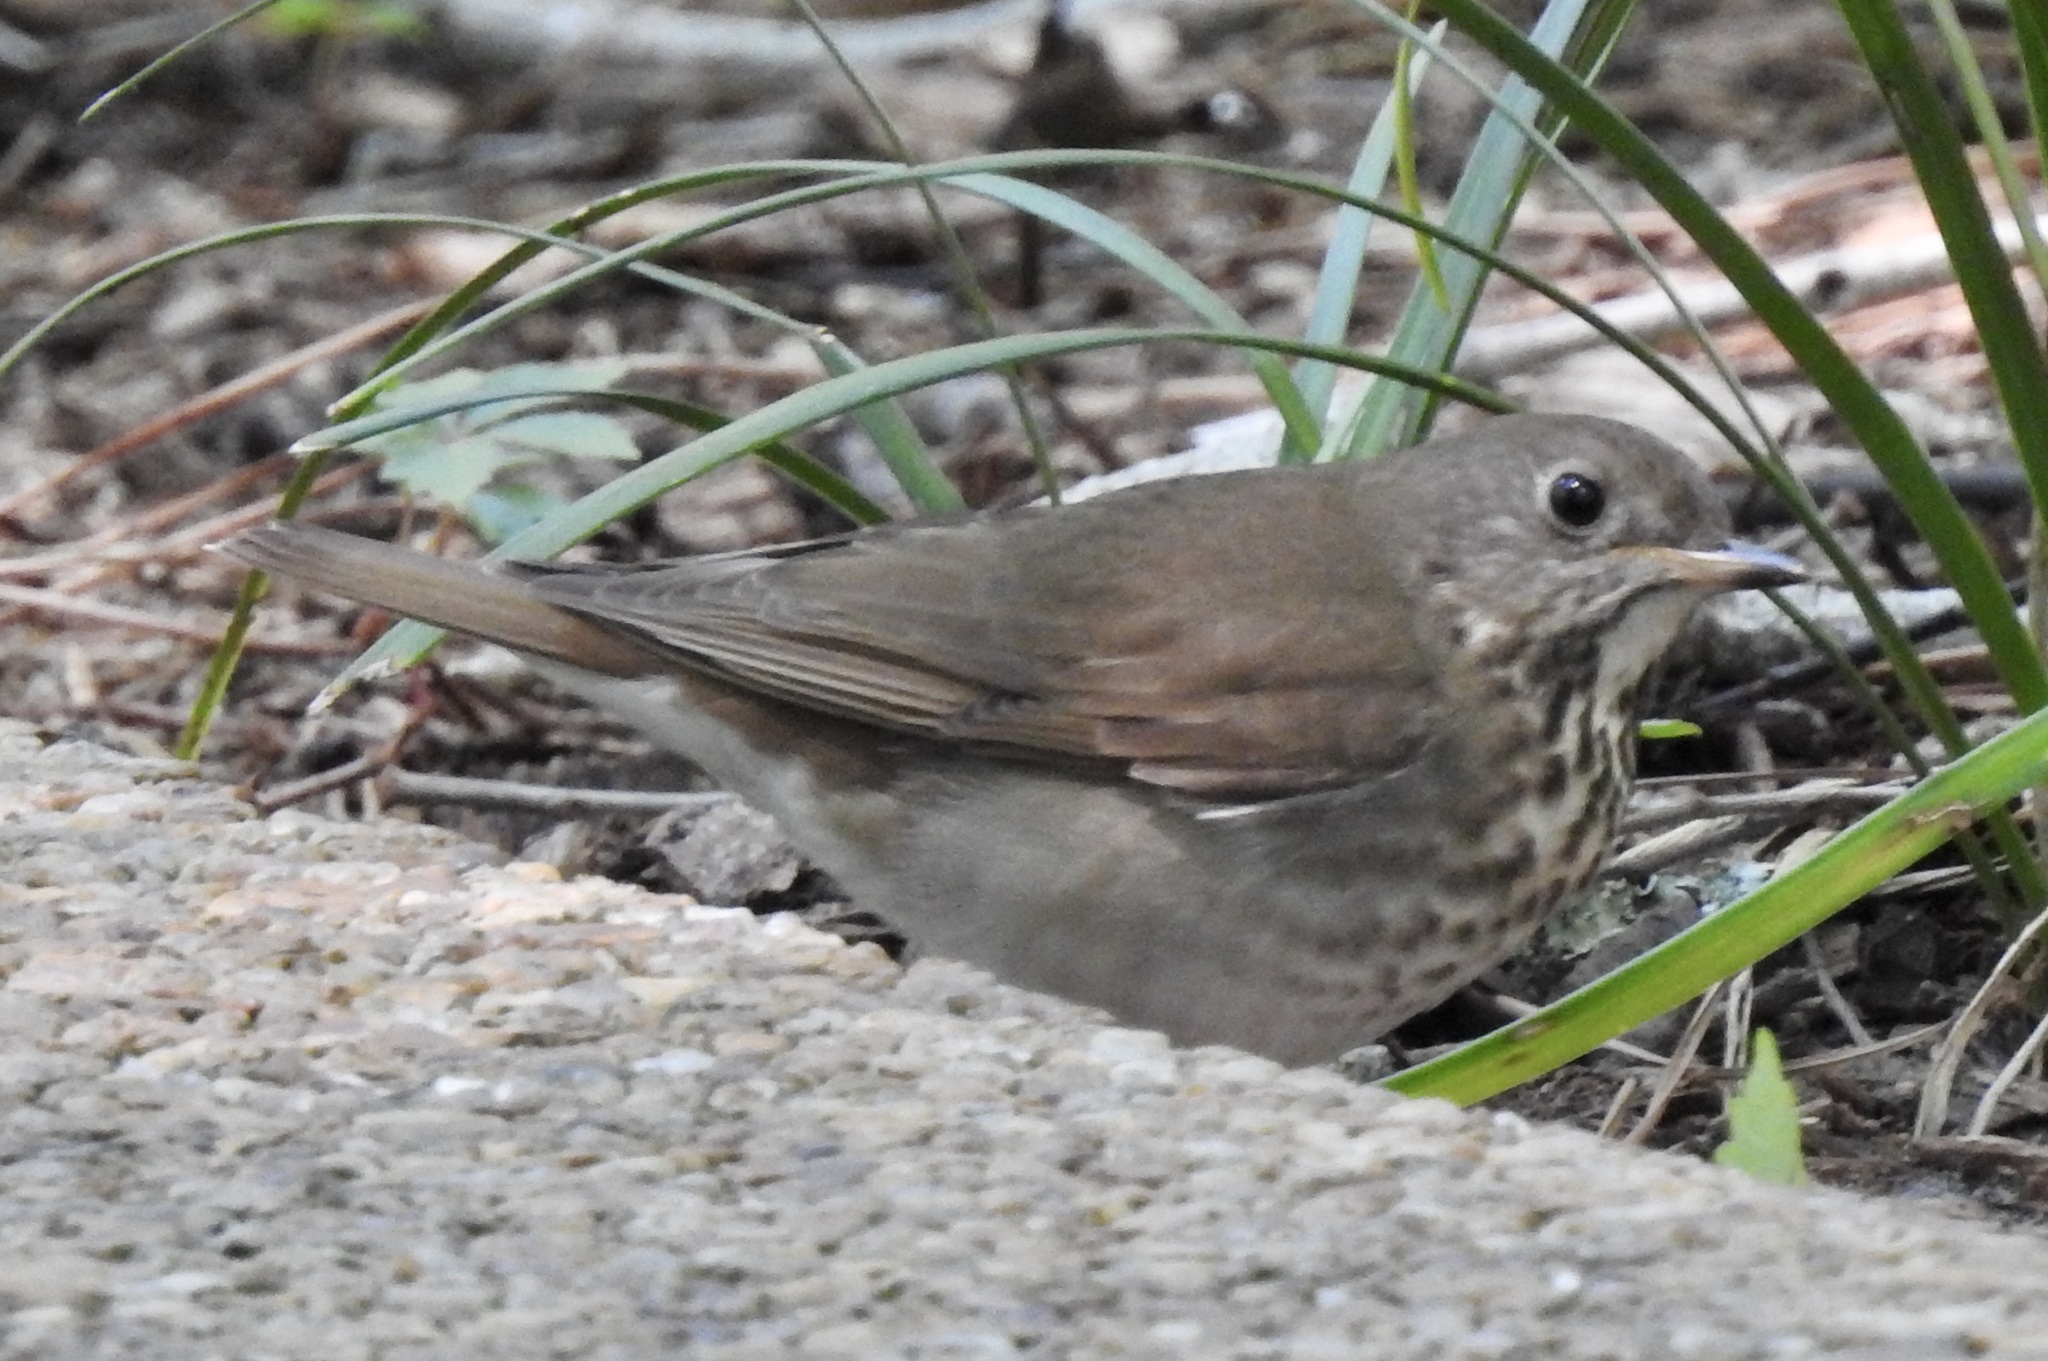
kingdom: Animalia
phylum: Chordata
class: Aves
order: Passeriformes
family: Turdidae
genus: Catharus
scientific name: Catharus minimus
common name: Grey-cheeked thrush
